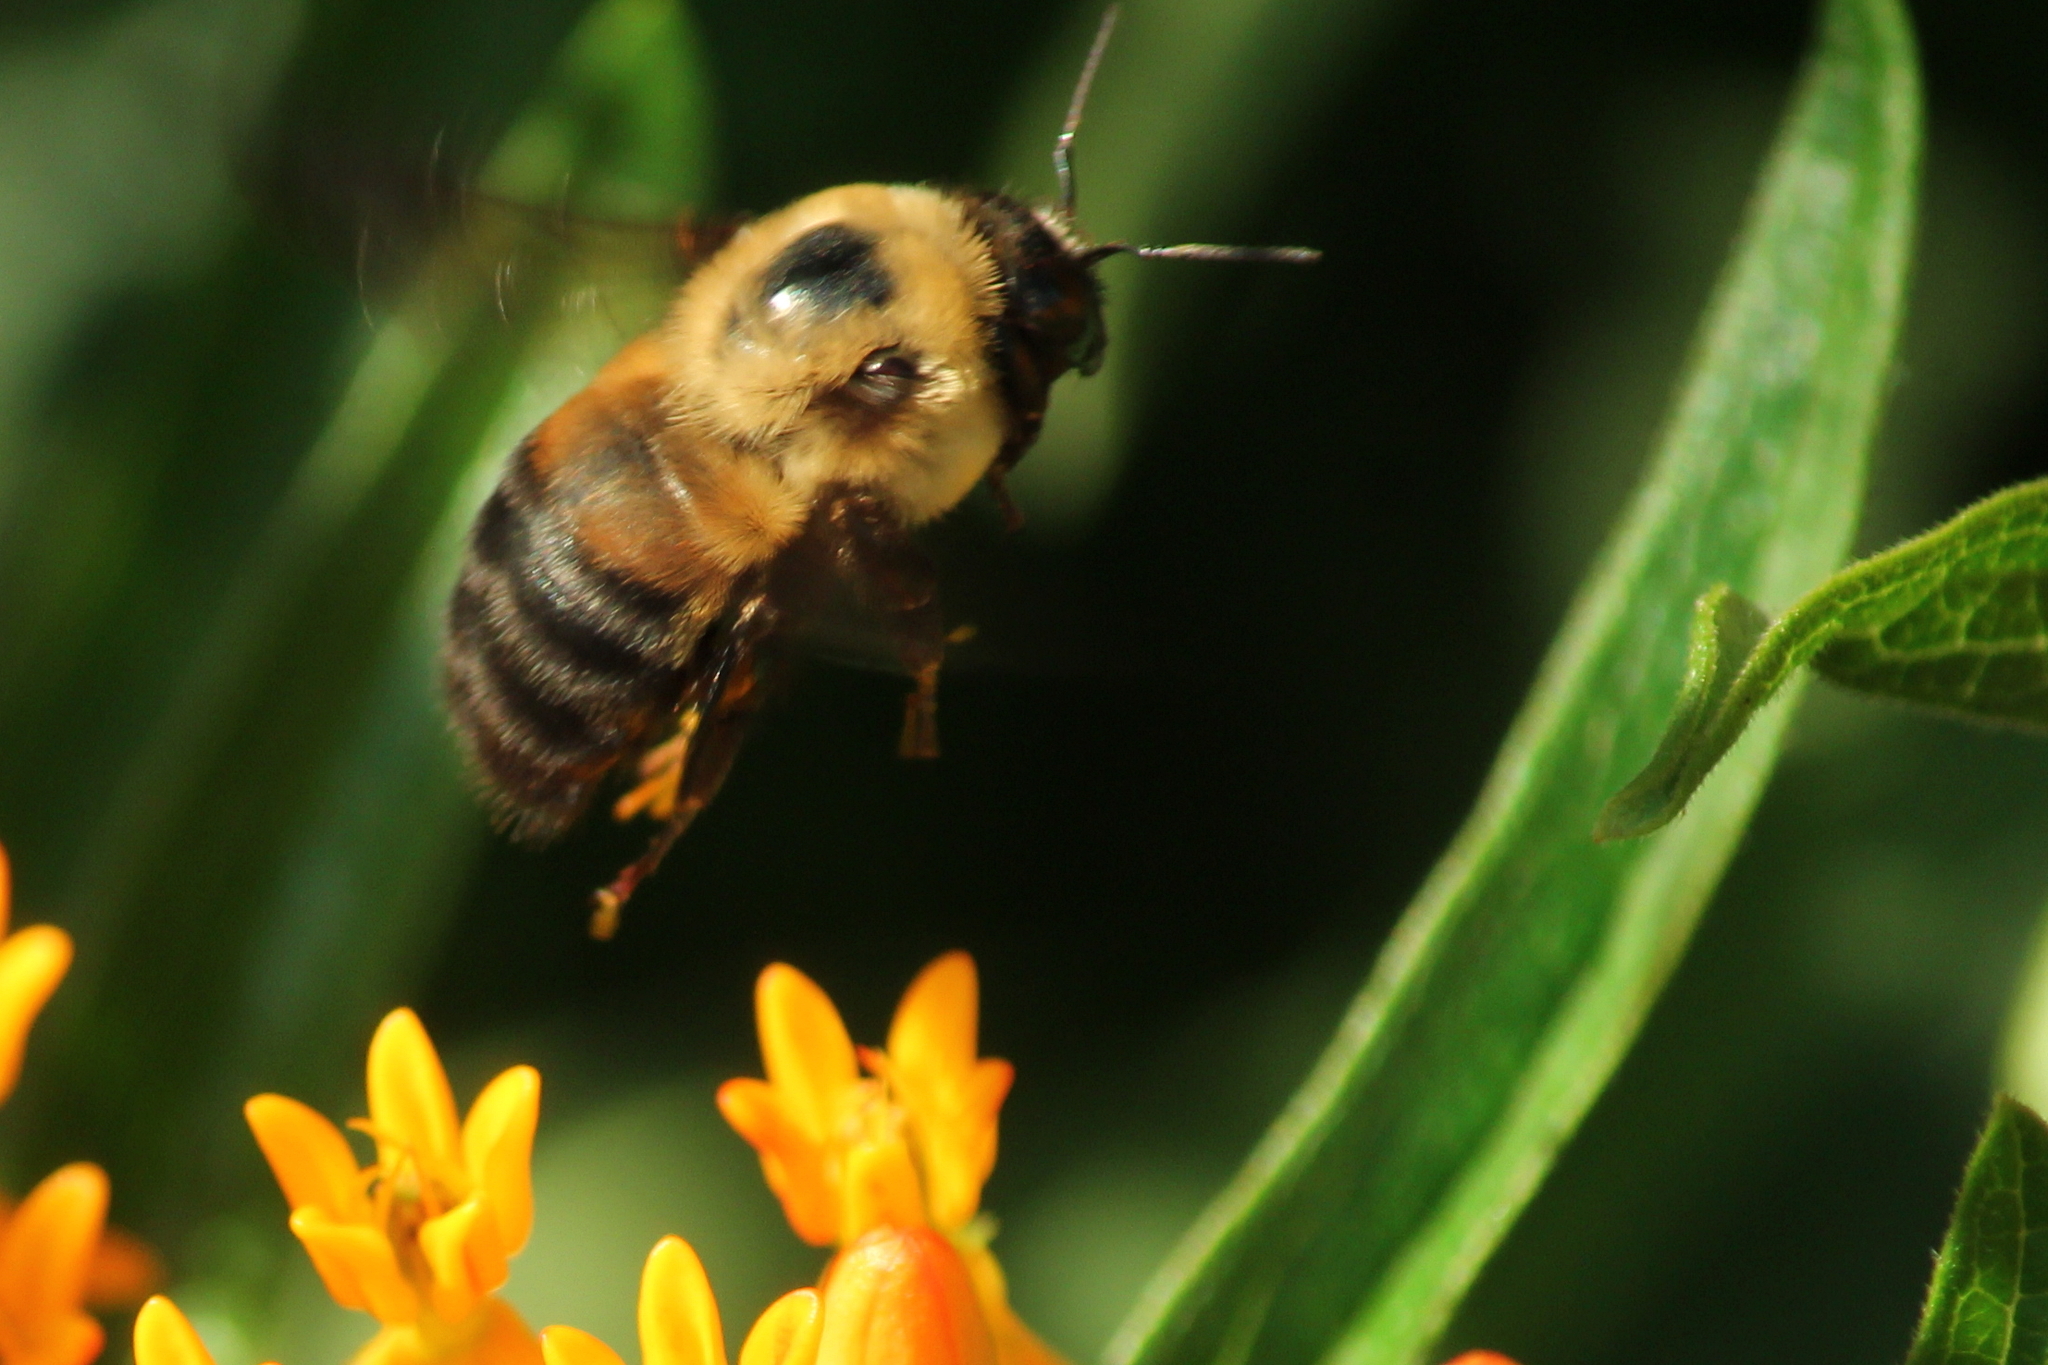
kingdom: Animalia
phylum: Arthropoda
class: Insecta
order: Hymenoptera
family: Apidae
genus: Bombus
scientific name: Bombus griseocollis
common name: Brown-belted bumble bee
